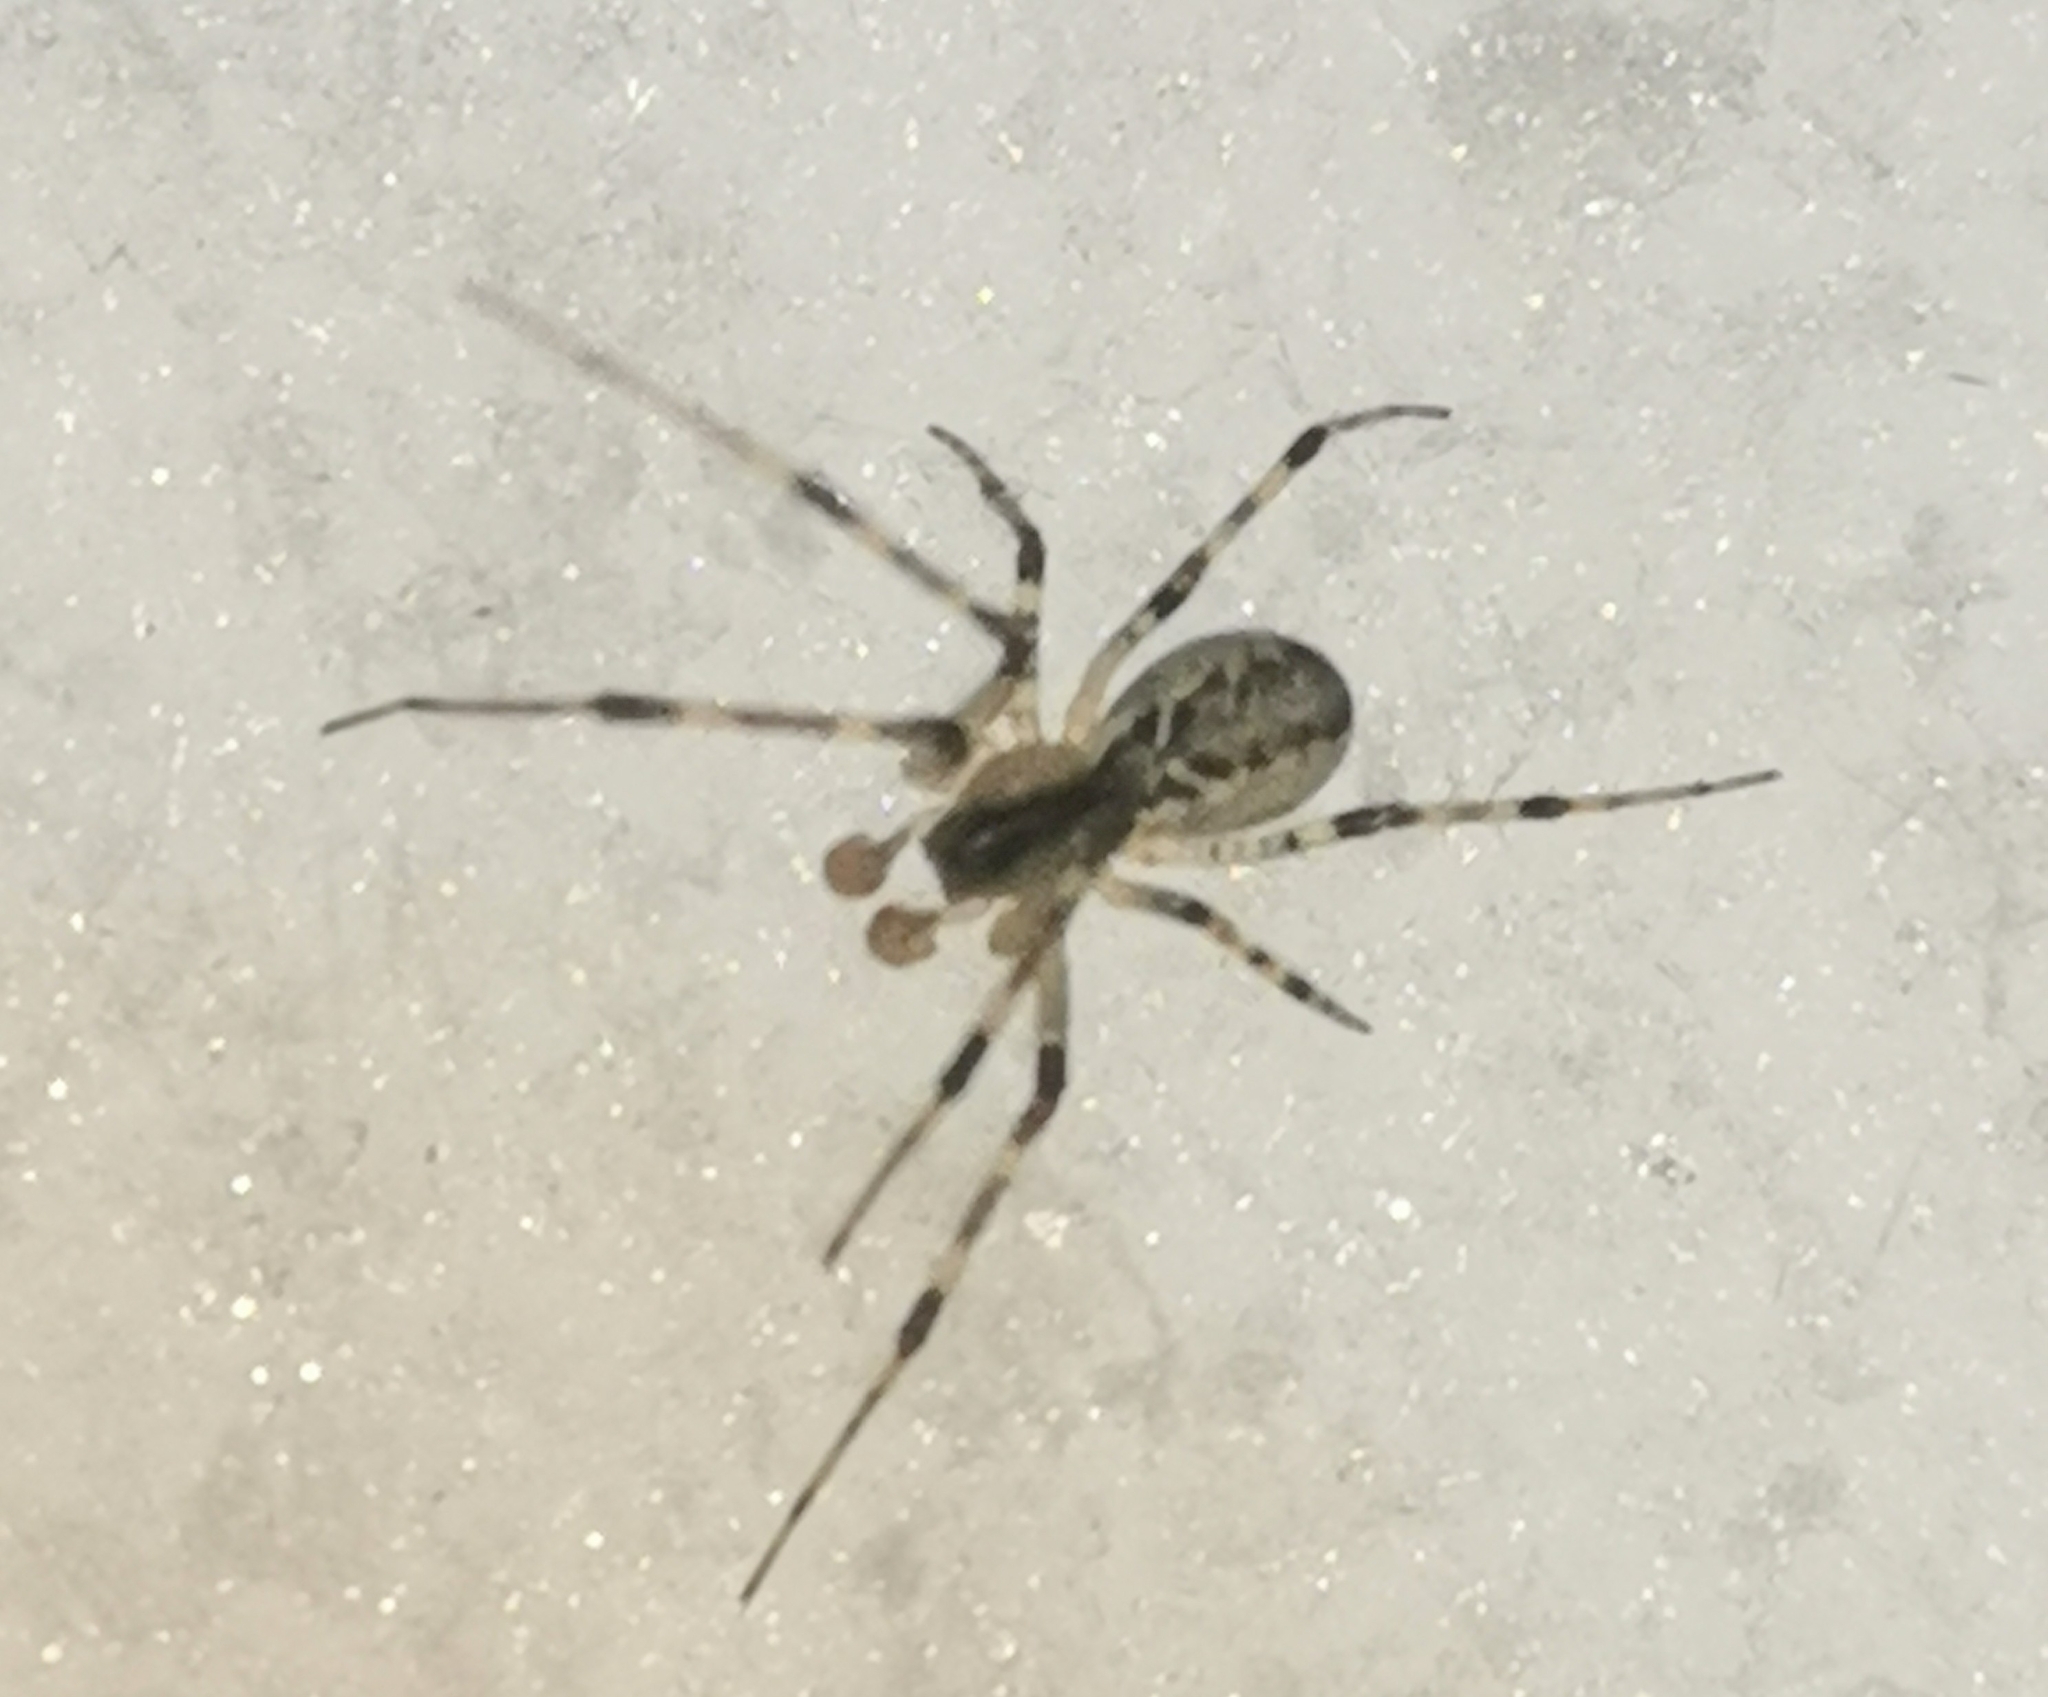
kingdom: Animalia
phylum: Arthropoda
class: Arachnida
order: Araneae
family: Linyphiidae
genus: Pityohyphantes
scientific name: Pityohyphantes phrygianus
